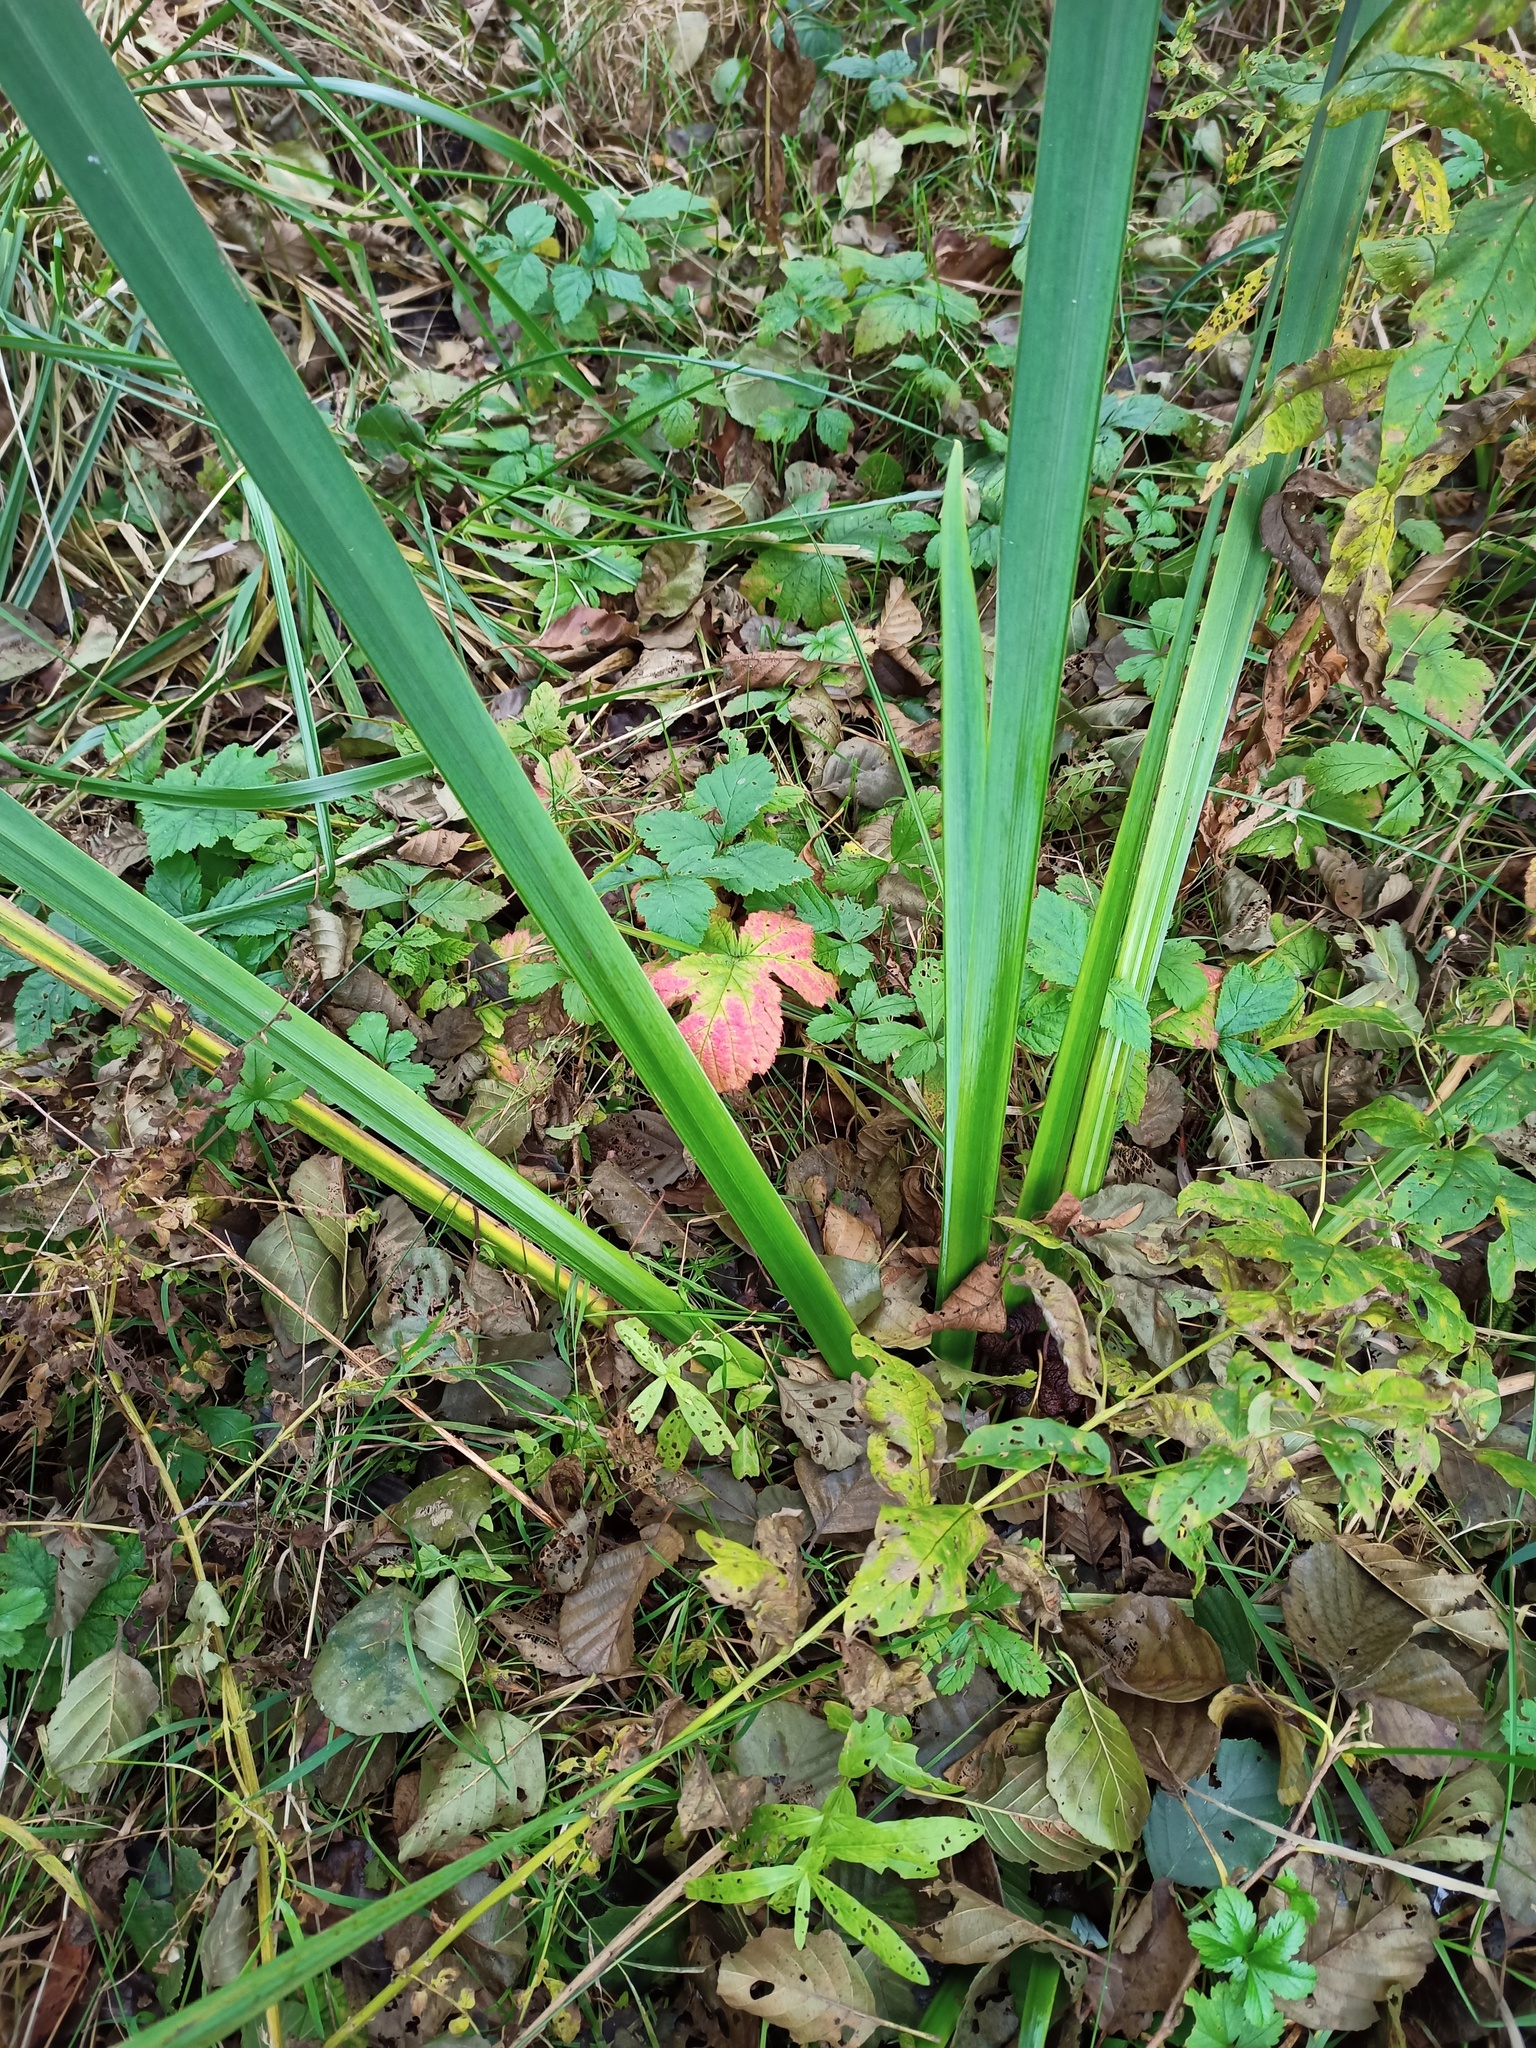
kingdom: Plantae
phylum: Tracheophyta
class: Liliopsida
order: Asparagales
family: Iridaceae
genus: Iris
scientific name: Iris pseudacorus
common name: Yellow flag
